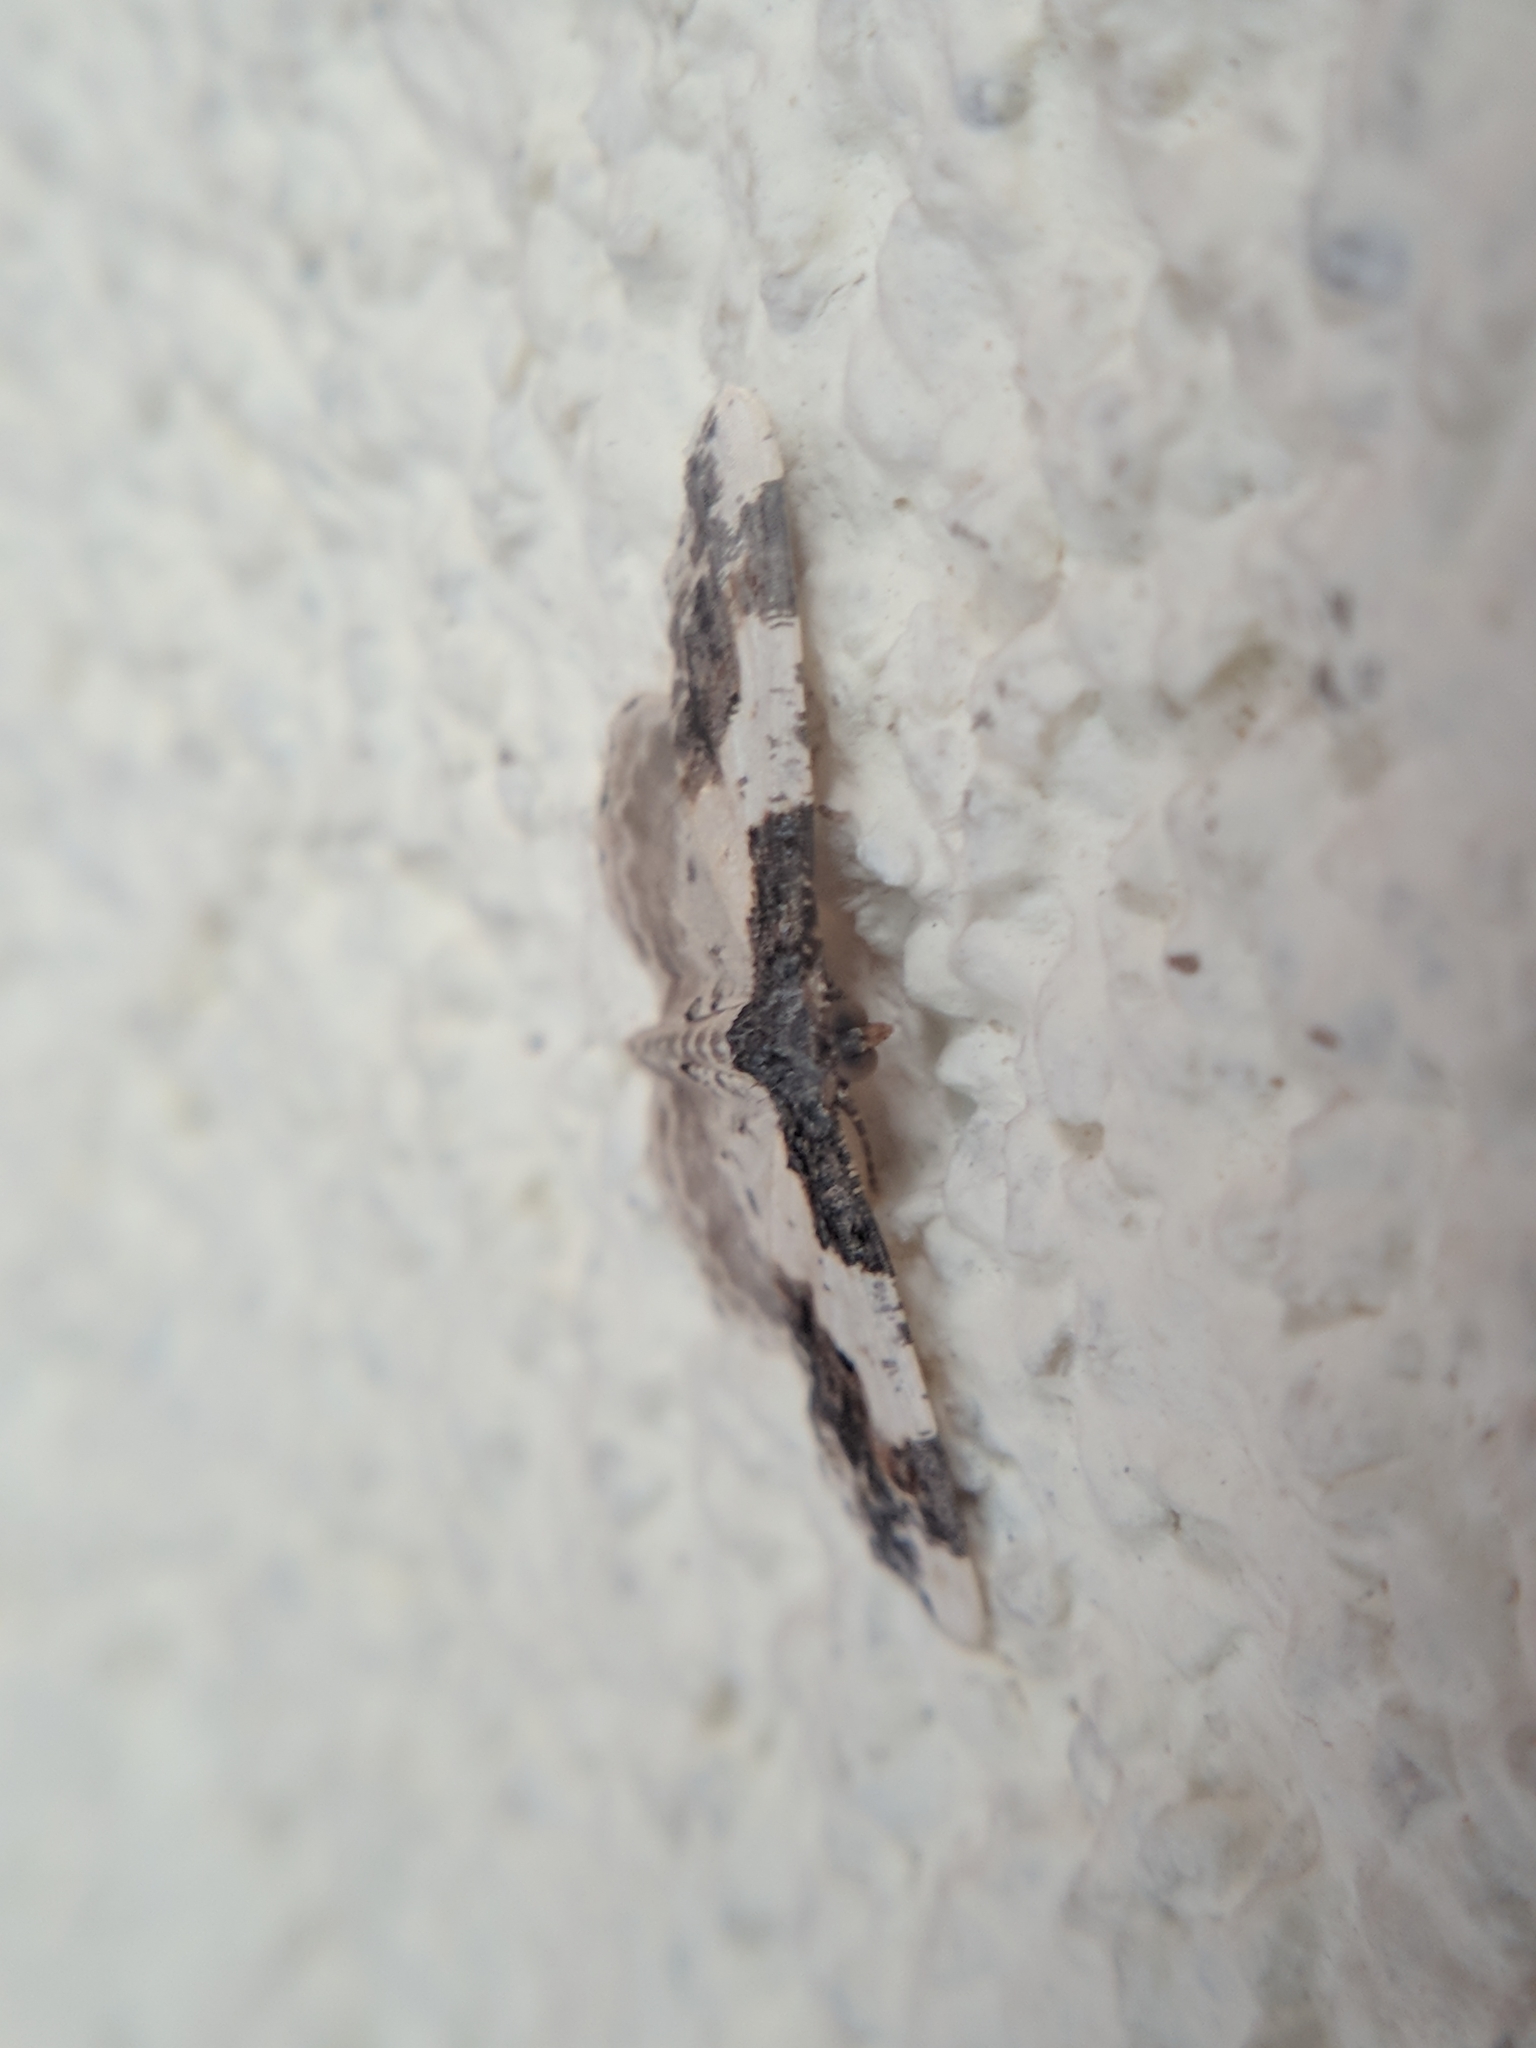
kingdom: Animalia
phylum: Arthropoda
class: Insecta
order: Lepidoptera
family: Geometridae
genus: Ligdia
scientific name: Ligdia adustata
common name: Scorched carpet
